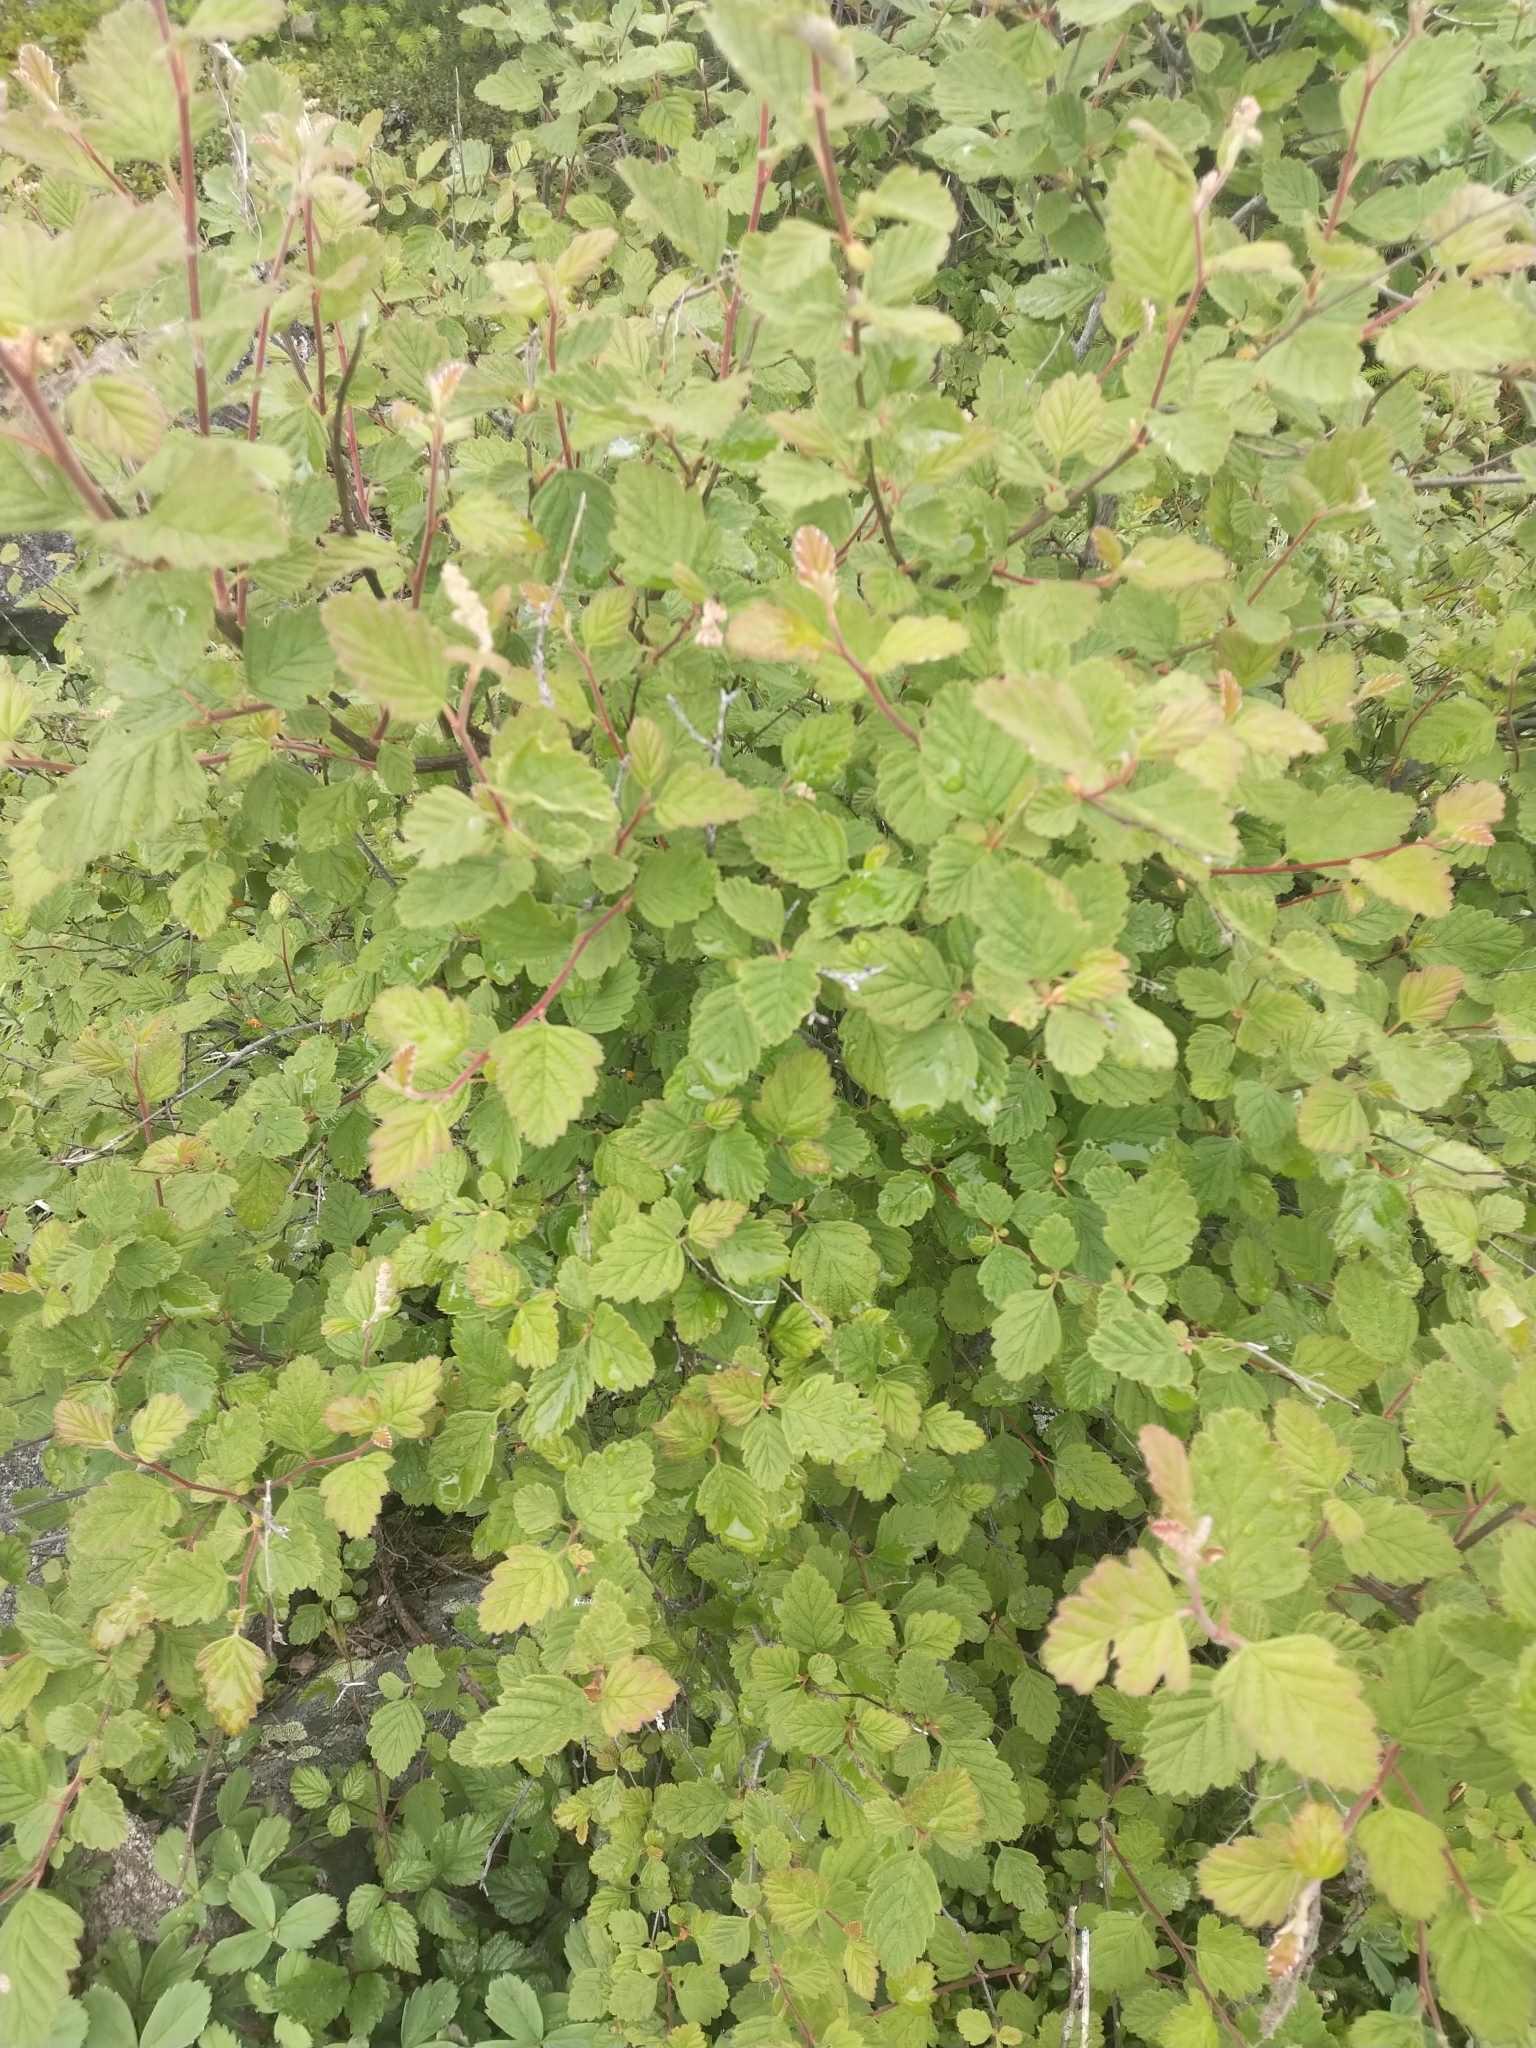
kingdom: Plantae
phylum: Tracheophyta
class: Magnoliopsida
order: Rosales
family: Rosaceae
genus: Holodiscus
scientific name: Holodiscus discolor
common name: Oceanspray
